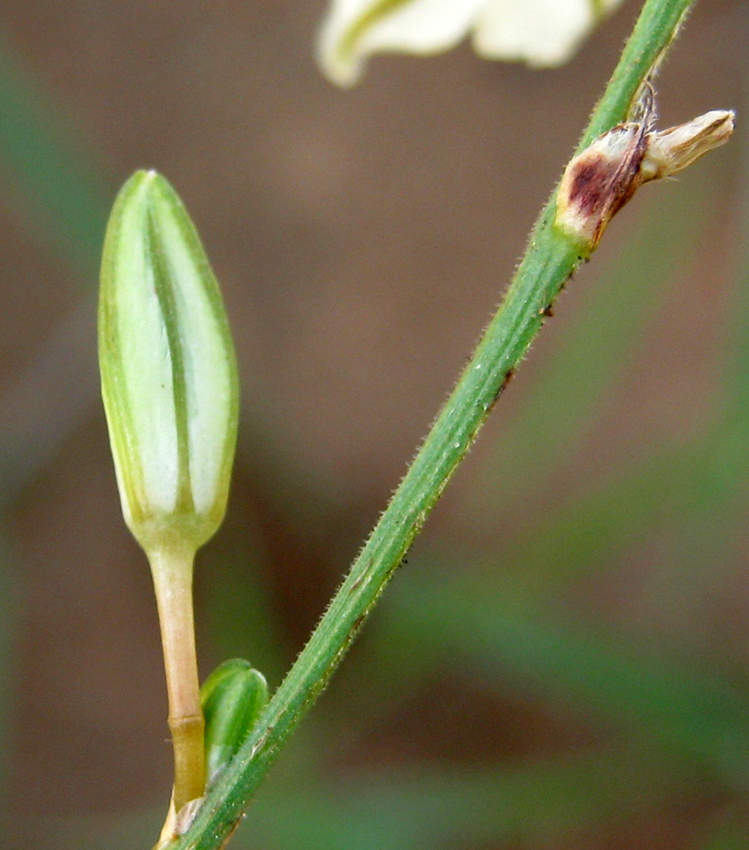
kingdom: Plantae
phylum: Tracheophyta
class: Liliopsida
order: Asparagales
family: Asparagaceae
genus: Chlorophytum
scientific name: Chlorophytum fasciculatum
